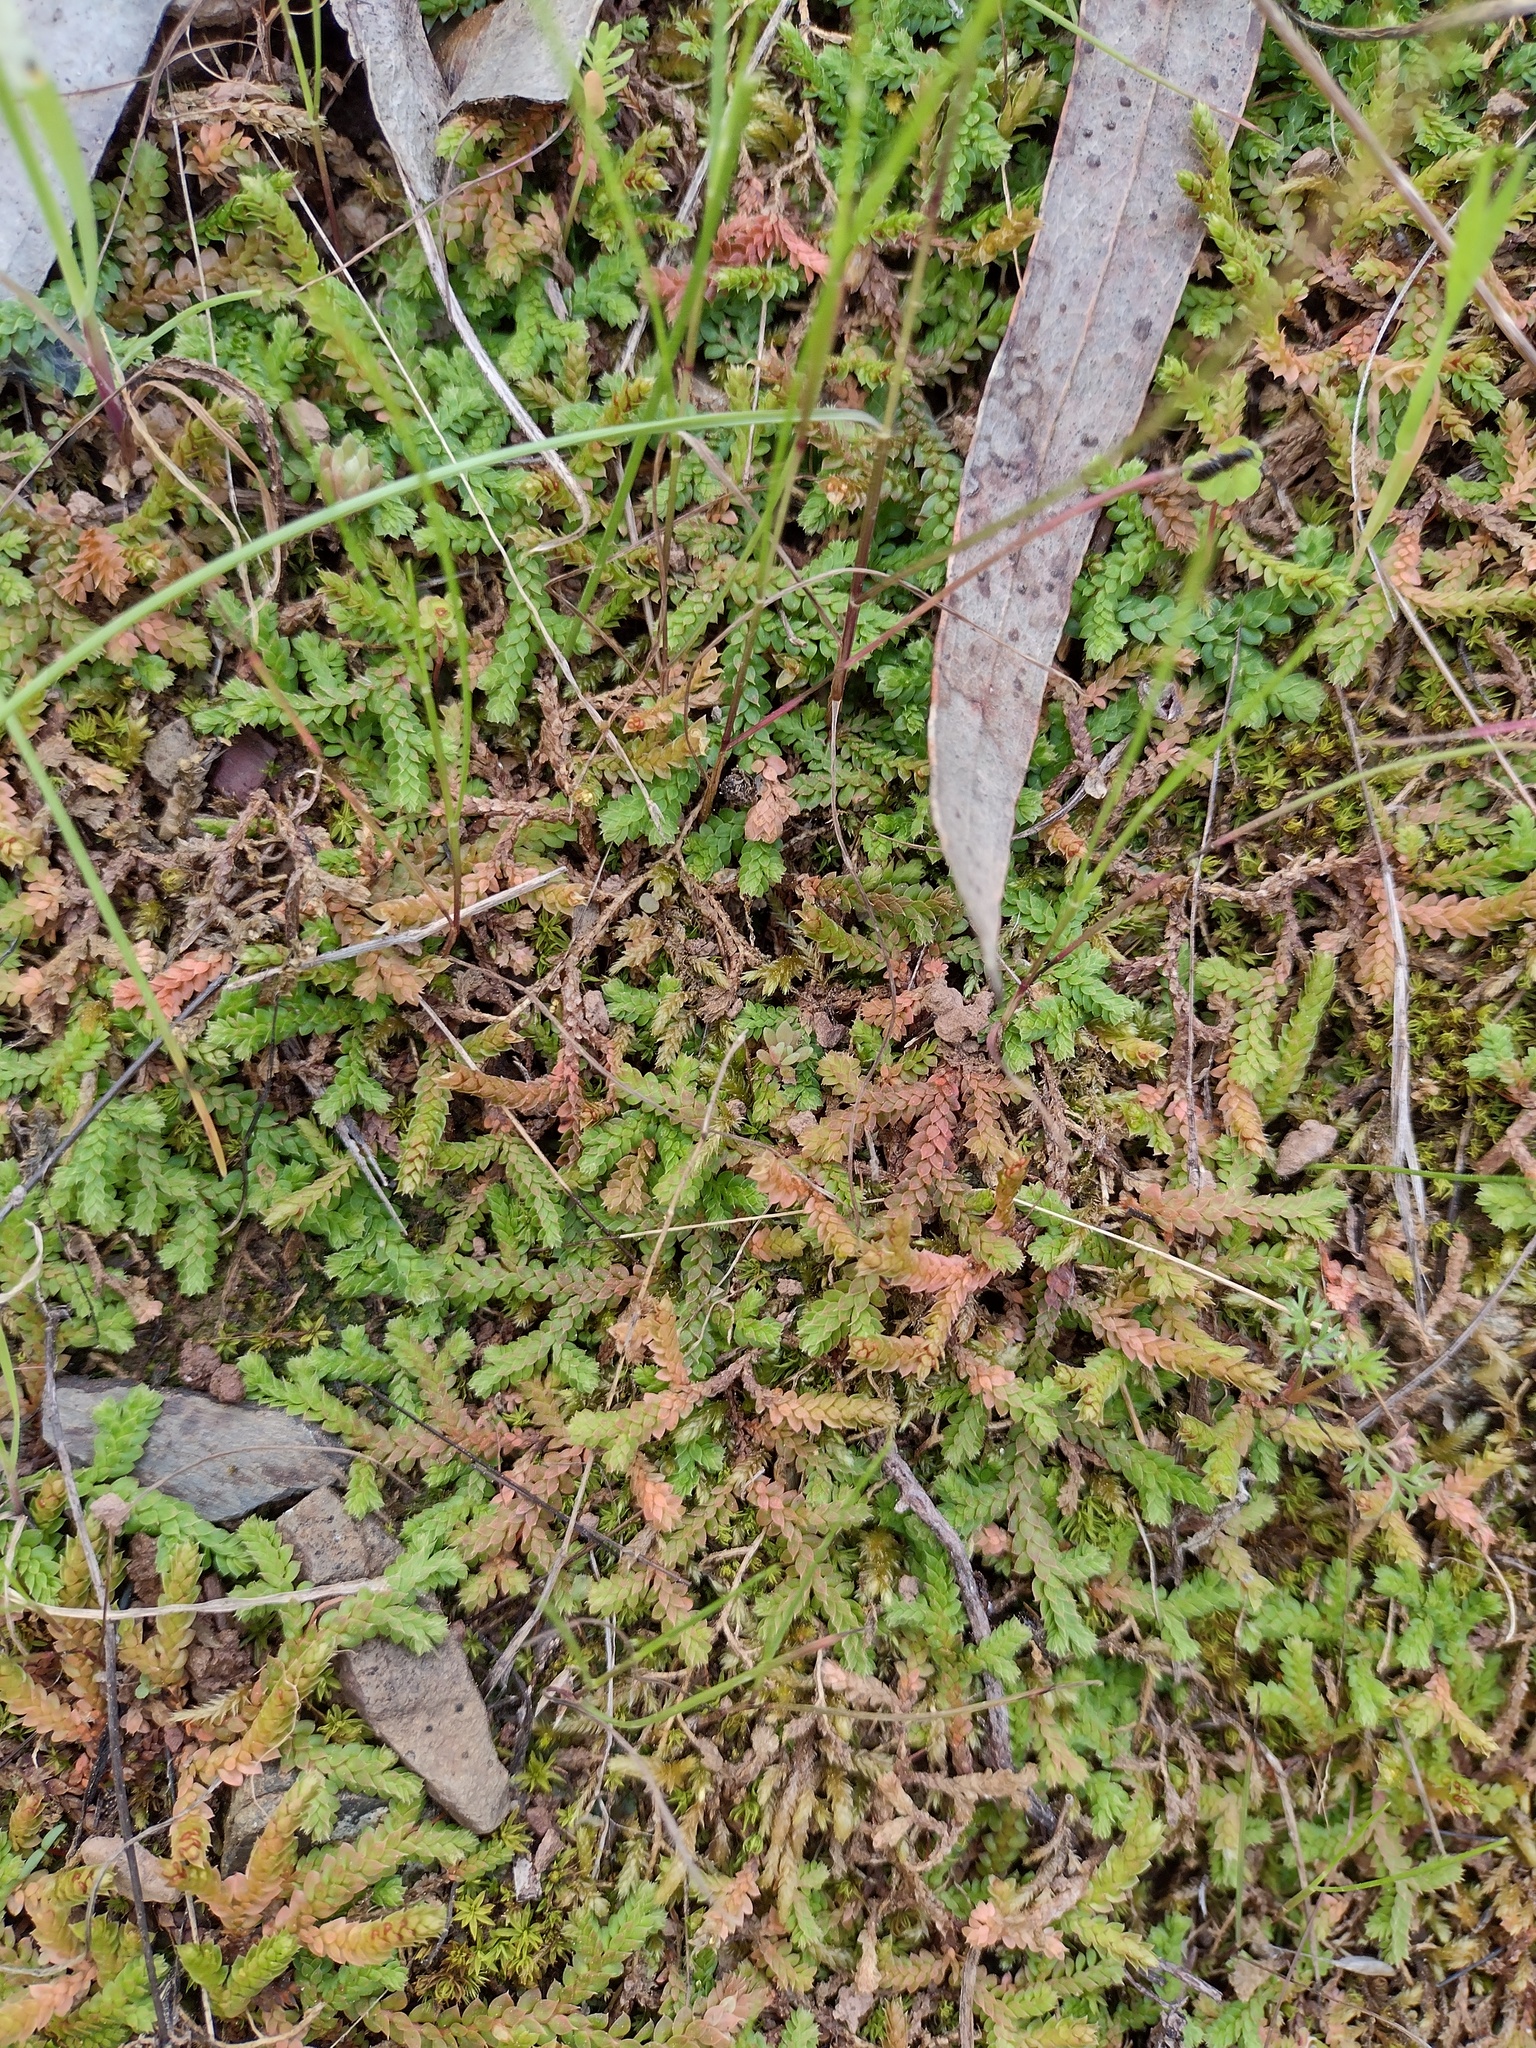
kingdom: Plantae
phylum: Tracheophyta
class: Lycopodiopsida
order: Selaginellales
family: Selaginellaceae
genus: Selaginella
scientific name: Selaginella denticulata
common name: Toothed-leaved clubmoss
